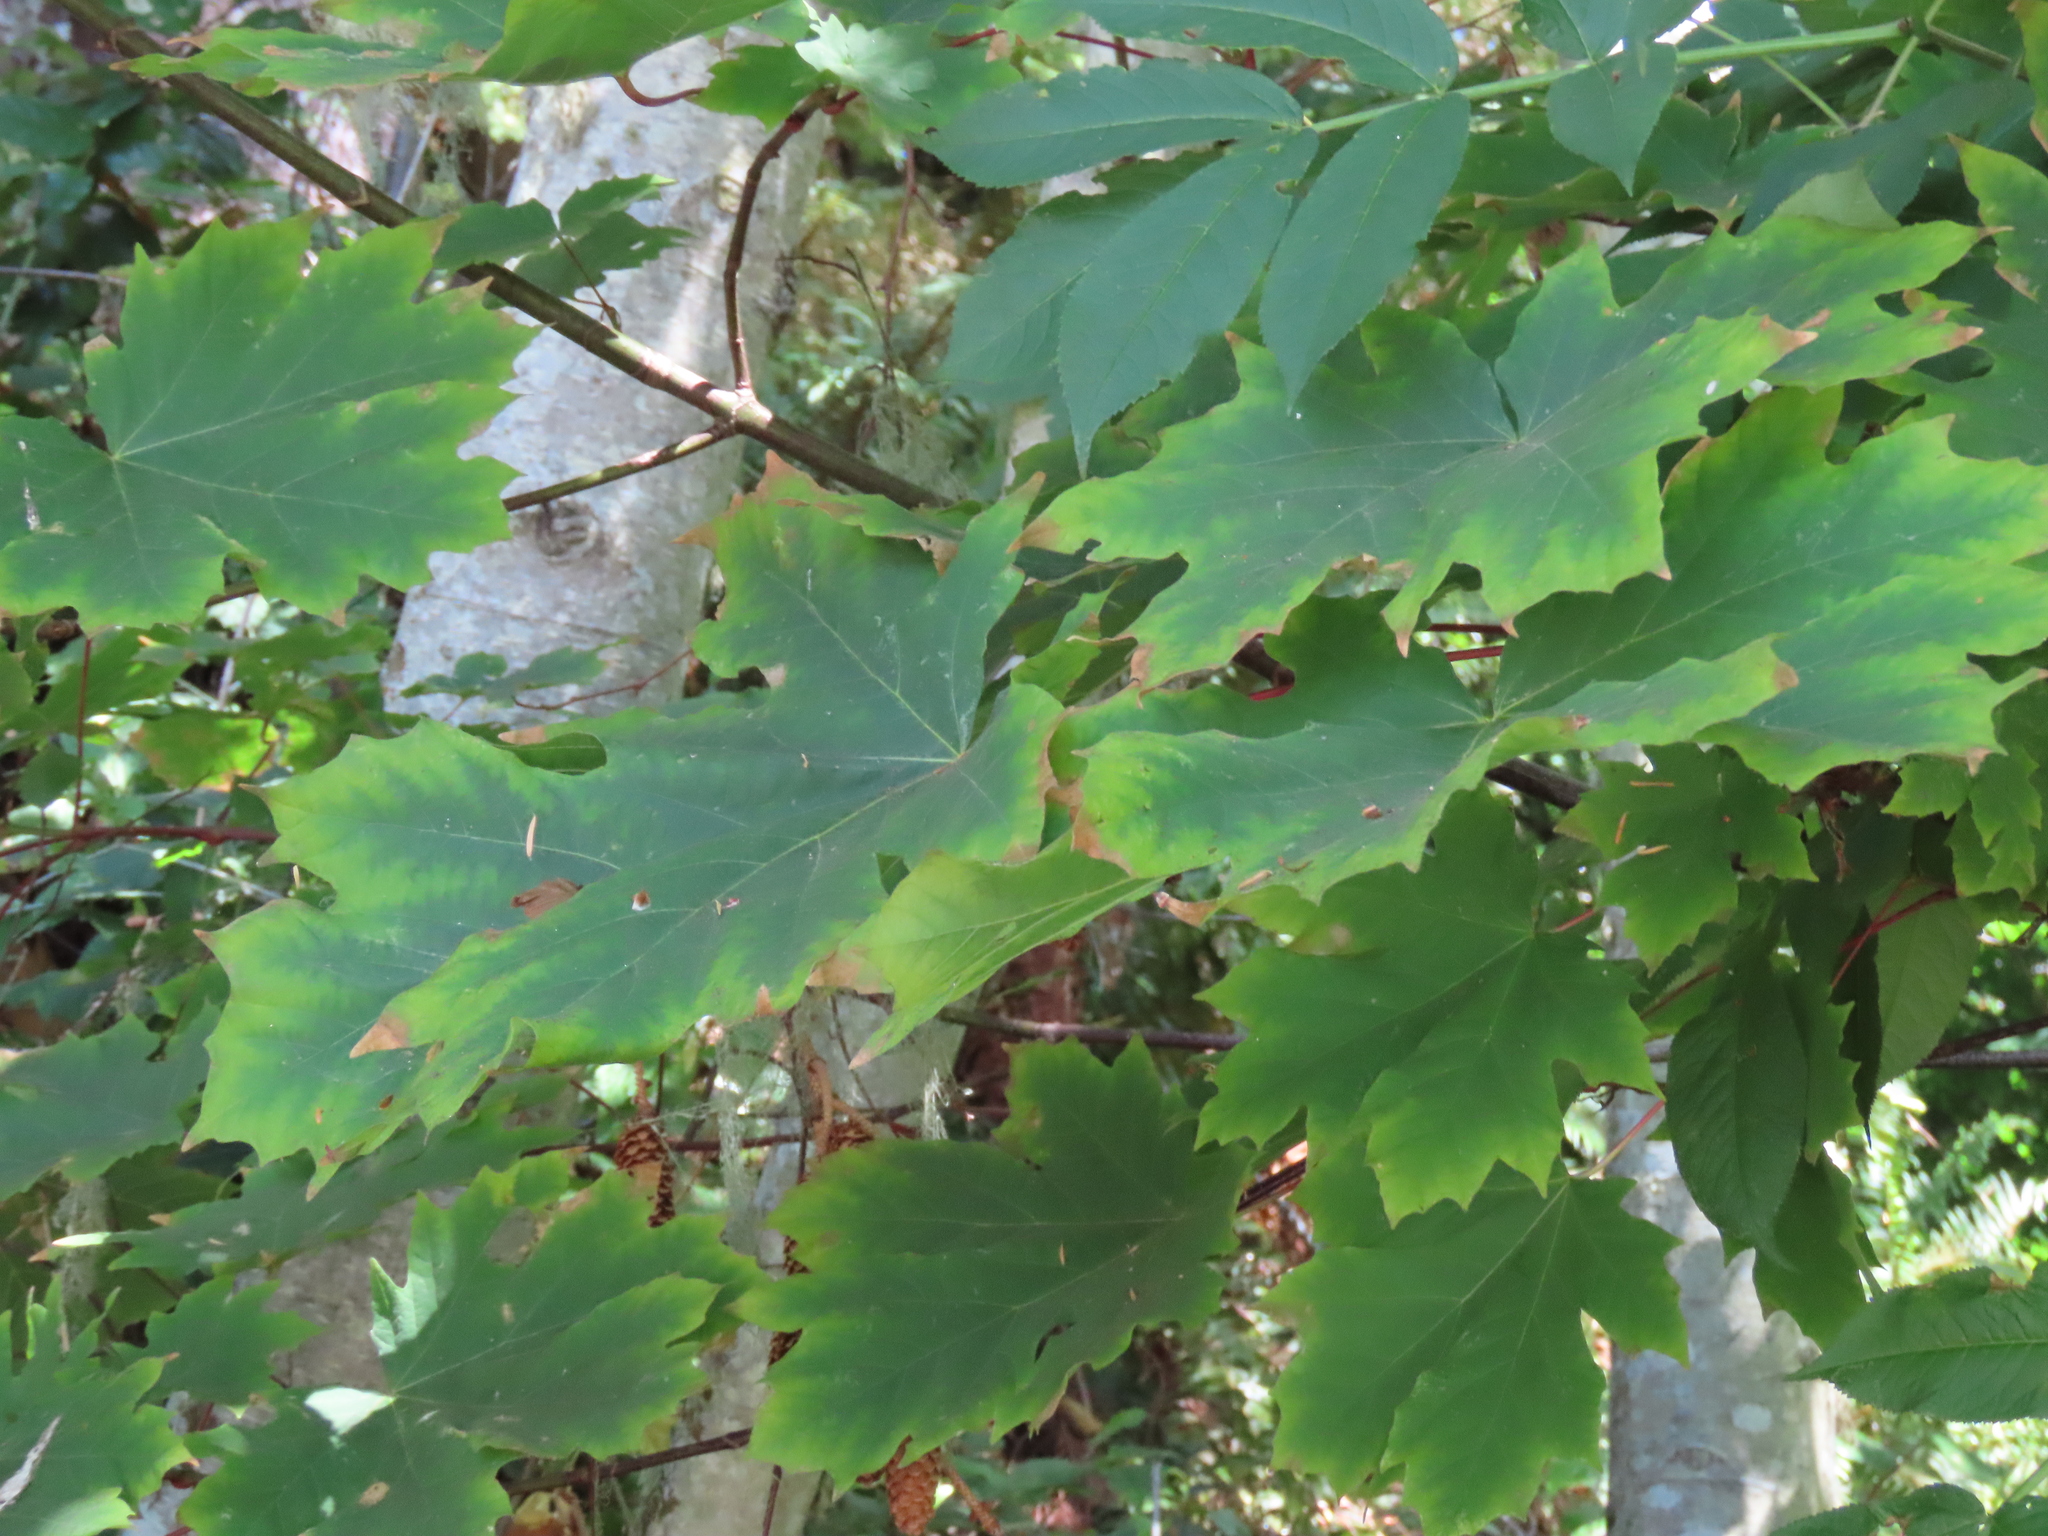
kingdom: Plantae
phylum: Tracheophyta
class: Magnoliopsida
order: Sapindales
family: Sapindaceae
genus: Acer
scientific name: Acer macrophyllum
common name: Oregon maple
